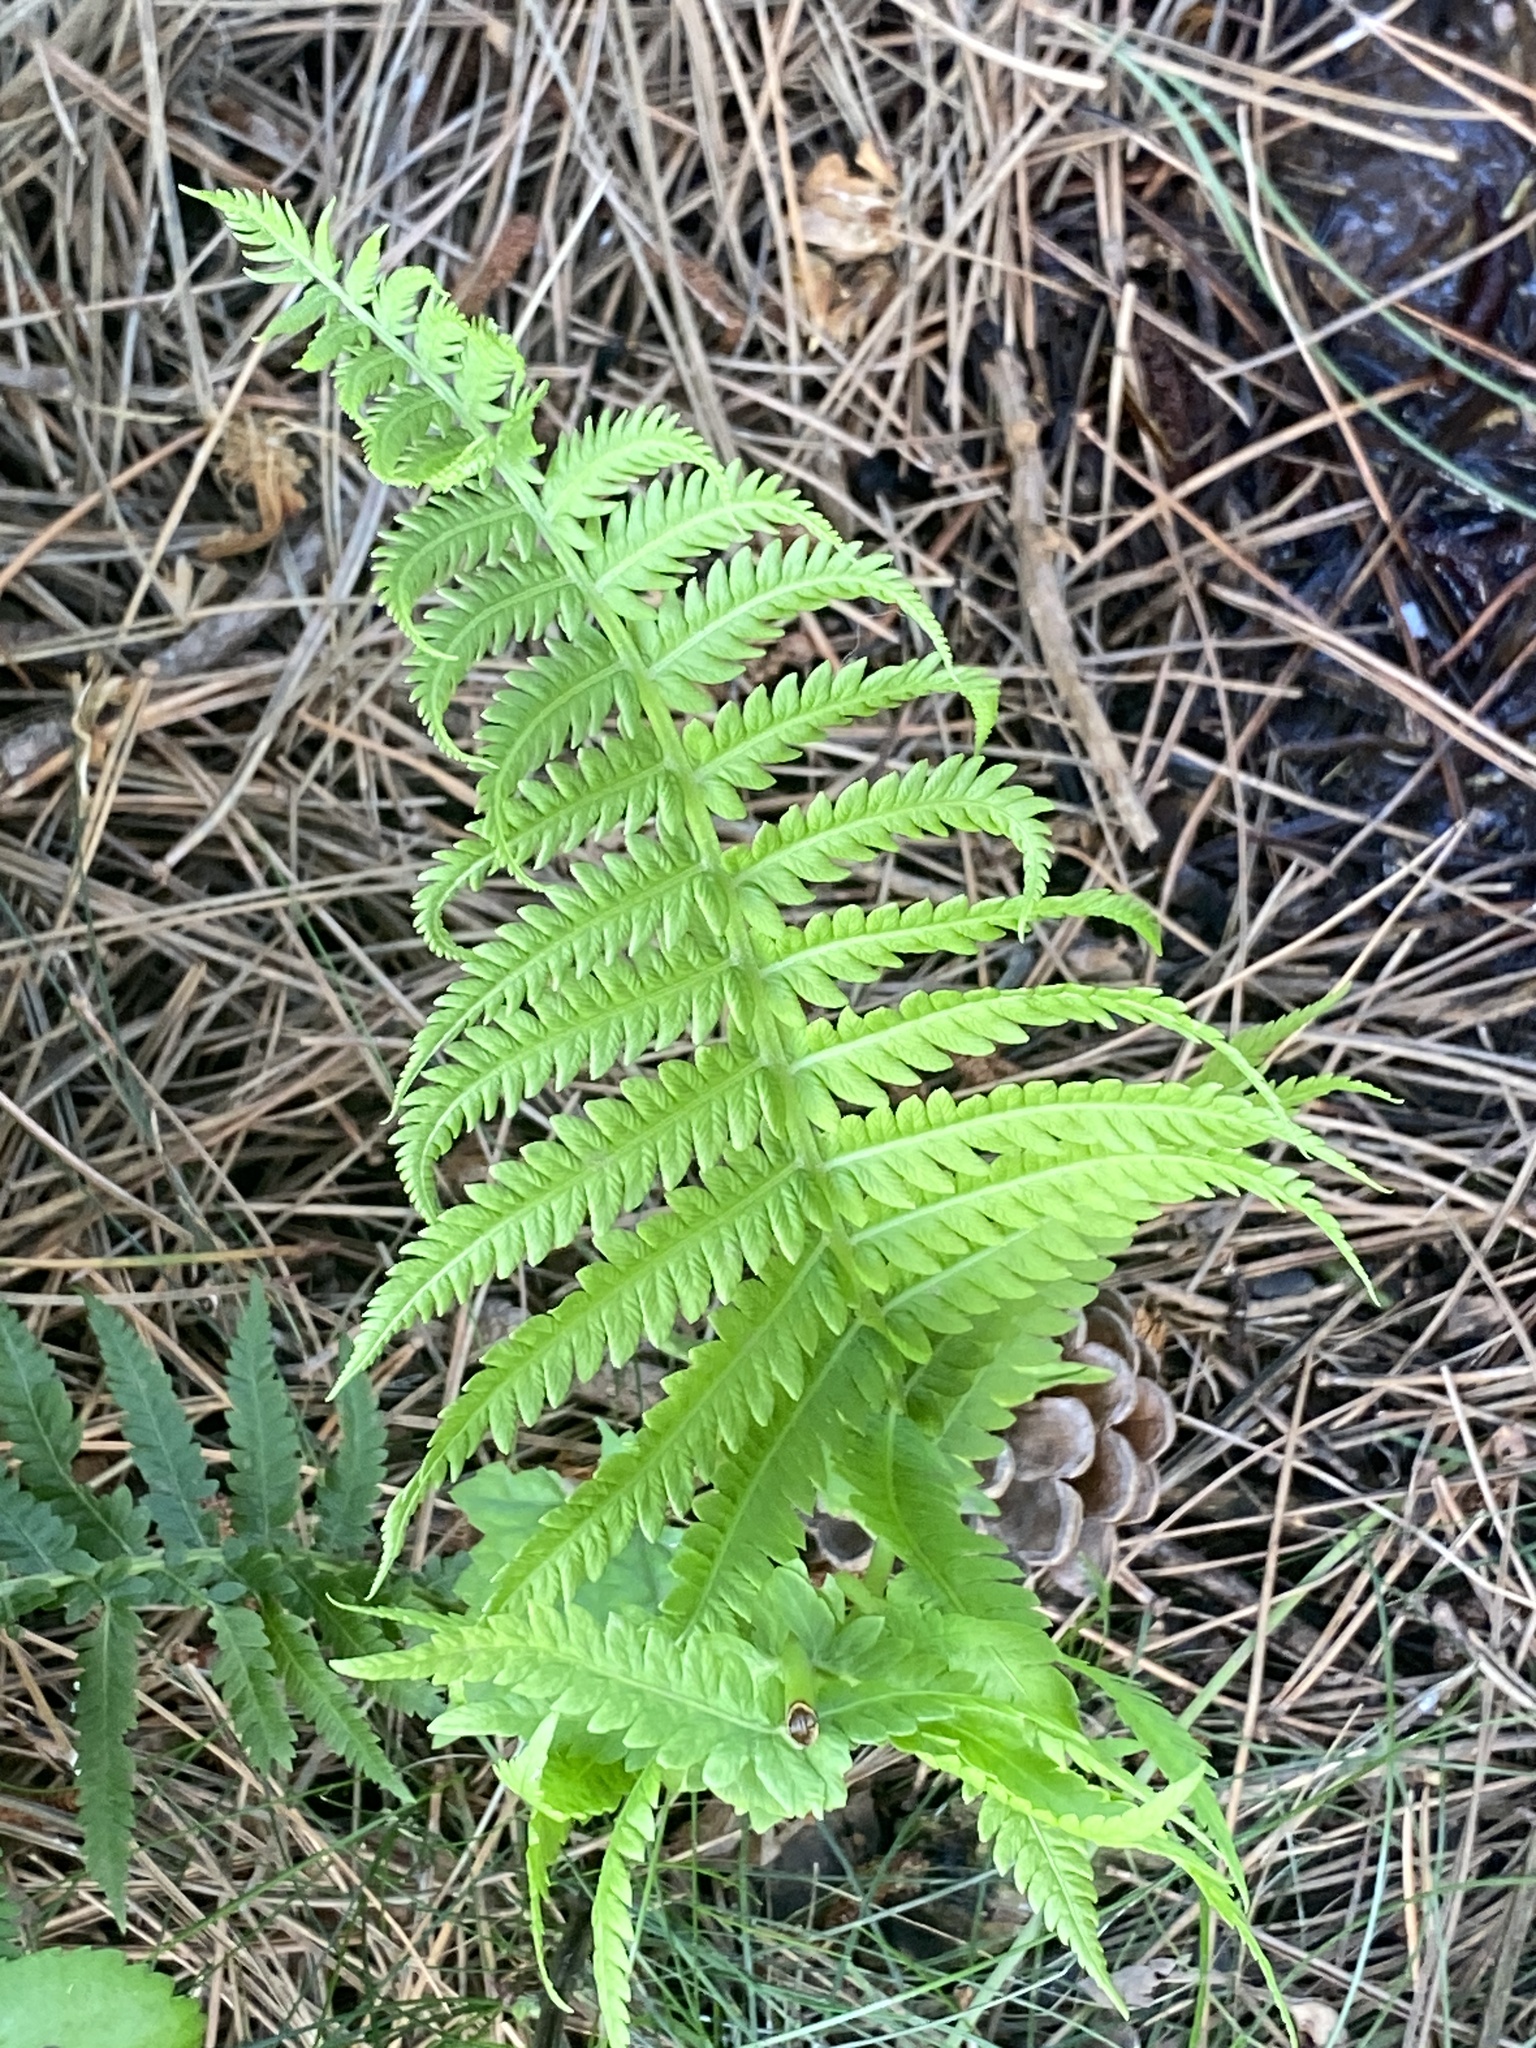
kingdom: Plantae
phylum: Tracheophyta
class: Polypodiopsida
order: Polypodiales
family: Onocleaceae
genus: Matteuccia
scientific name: Matteuccia struthiopteris
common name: Ostrich fern
